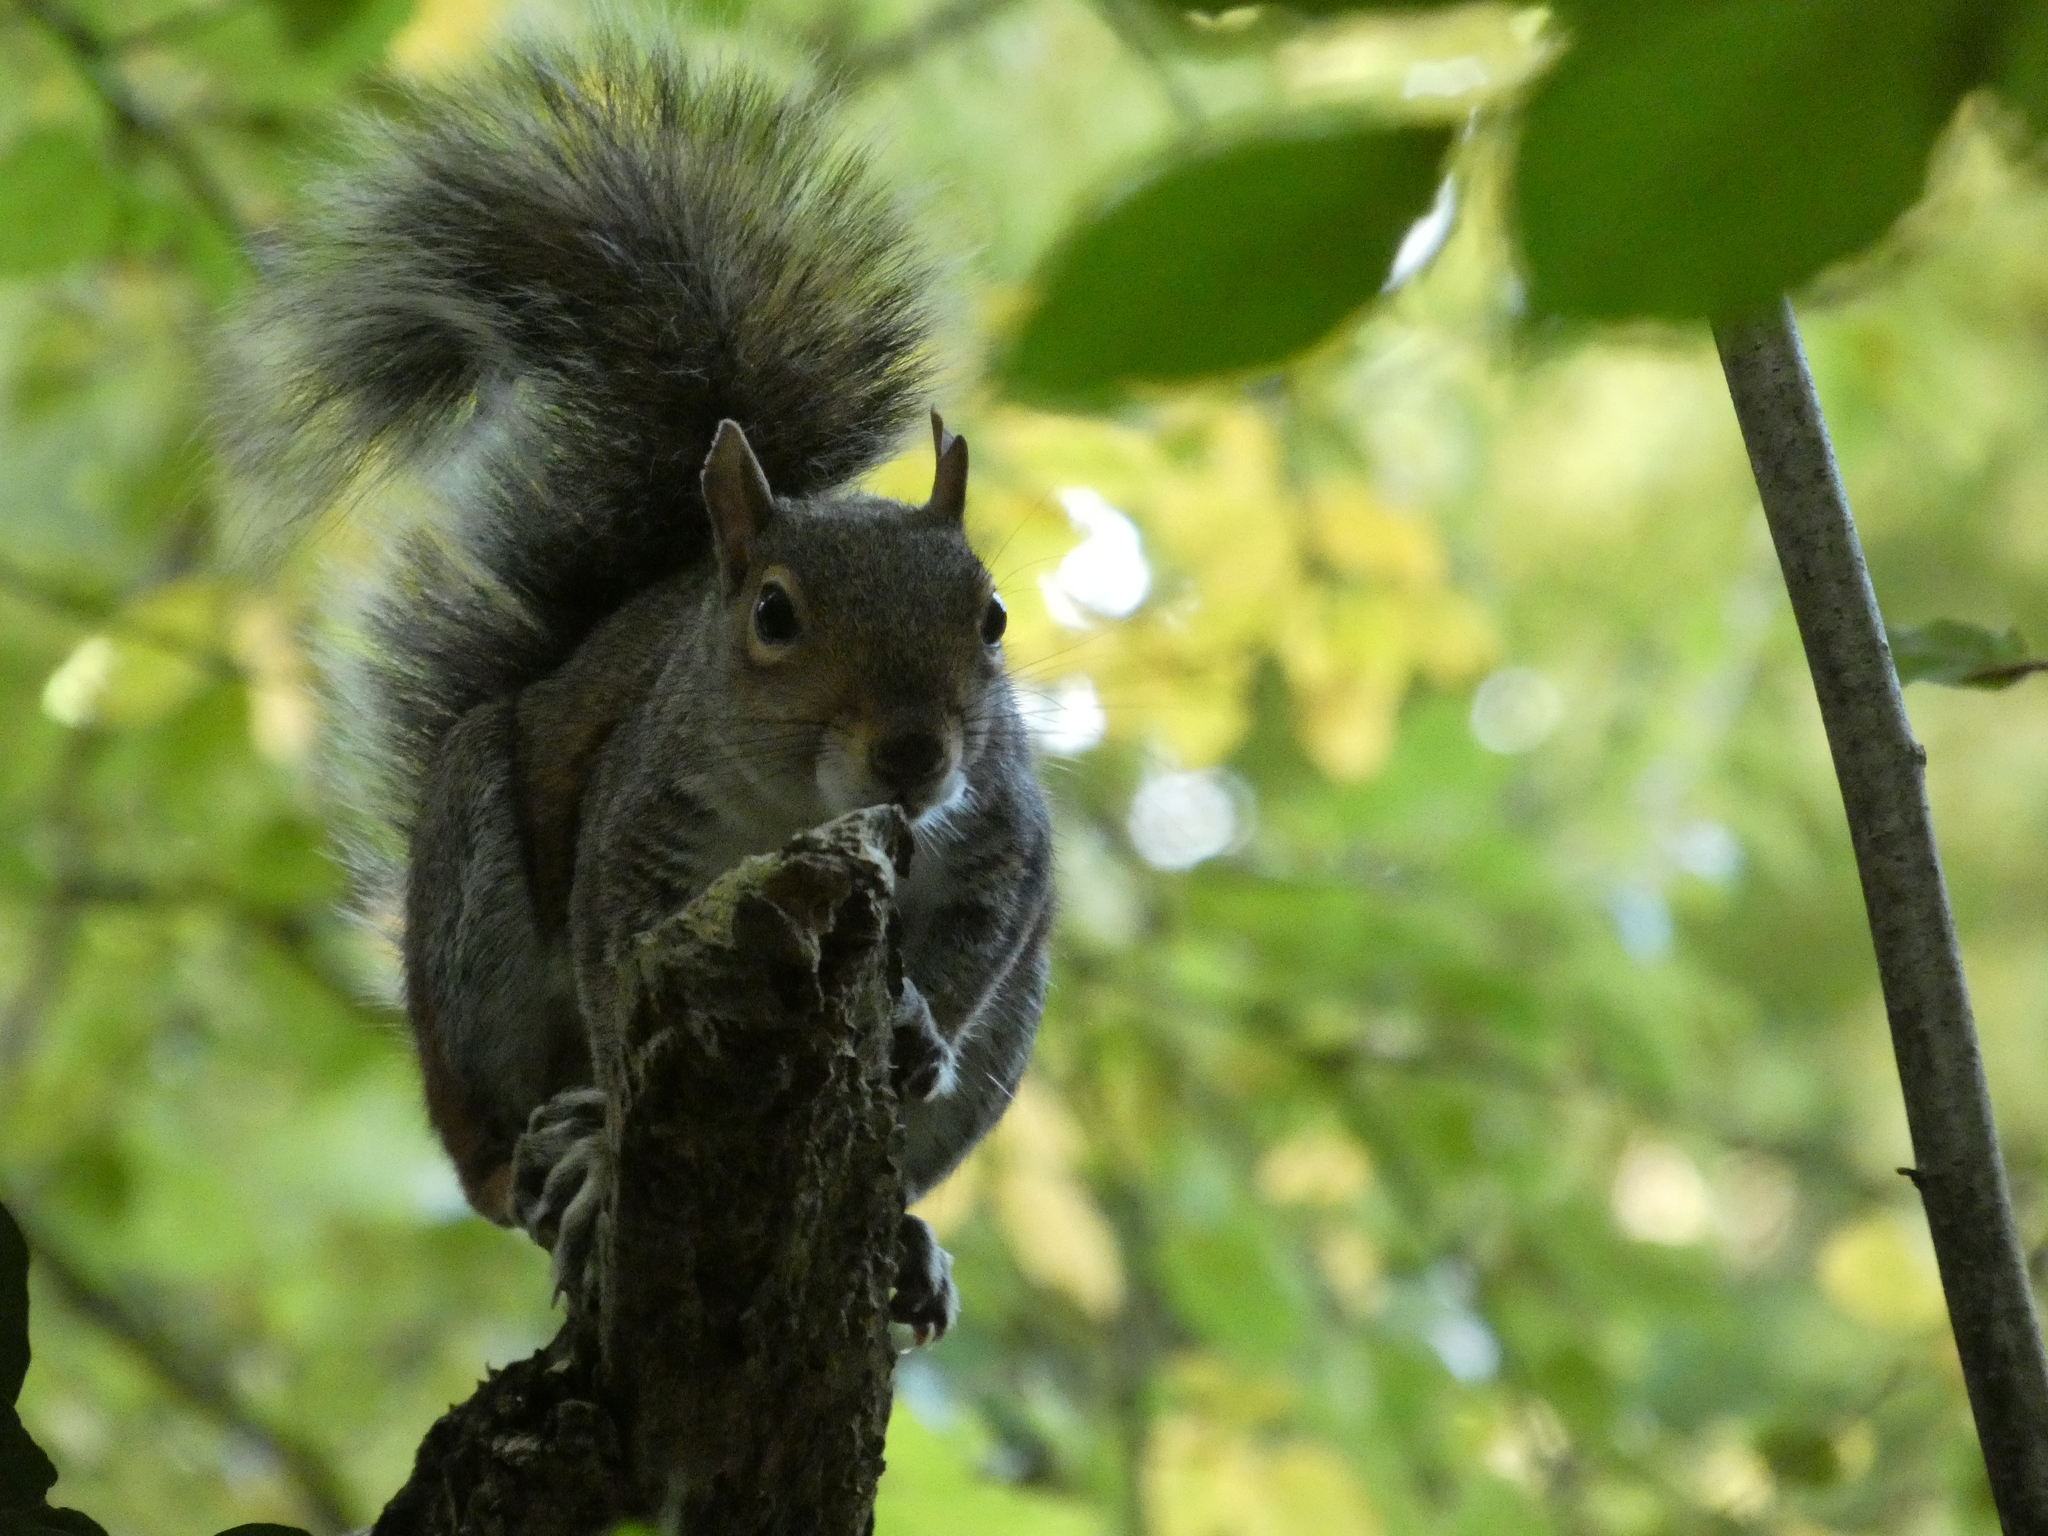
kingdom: Animalia
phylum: Chordata
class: Mammalia
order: Rodentia
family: Sciuridae
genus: Sciurus
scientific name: Sciurus carolinensis
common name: Eastern gray squirrel
